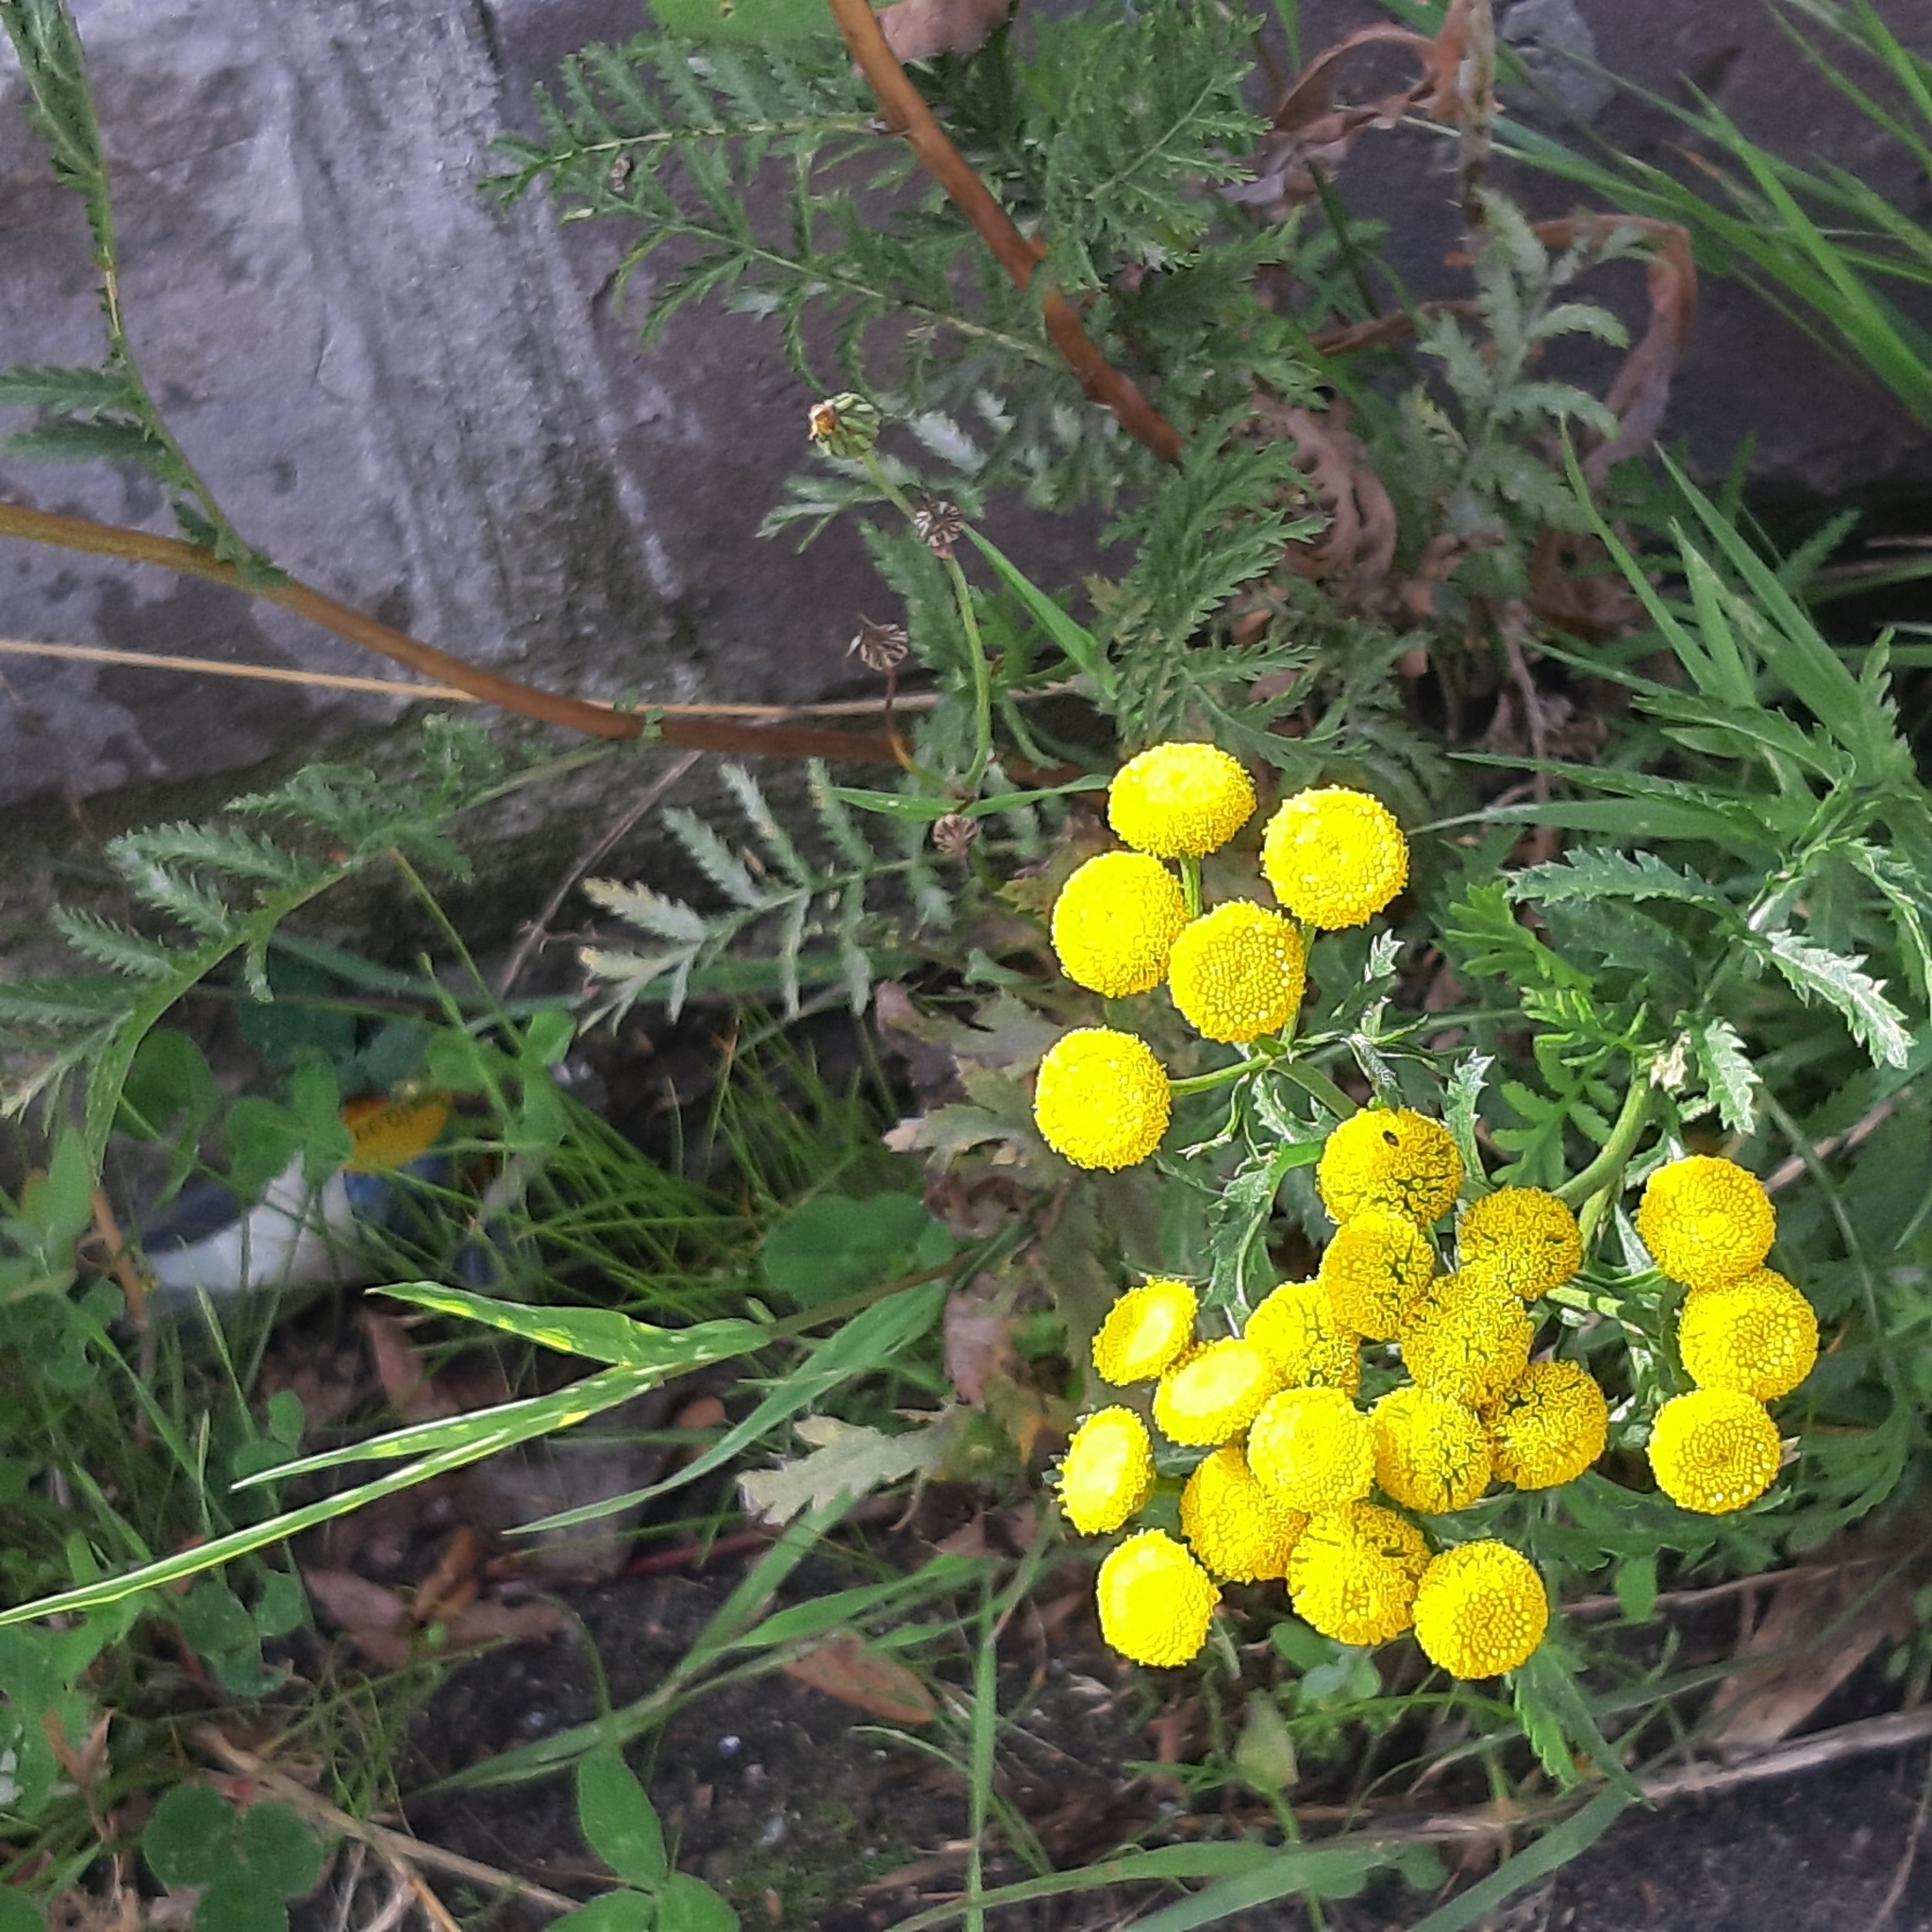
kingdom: Plantae
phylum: Tracheophyta
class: Magnoliopsida
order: Asterales
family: Asteraceae
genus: Tanacetum
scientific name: Tanacetum vulgare
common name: Common tansy
